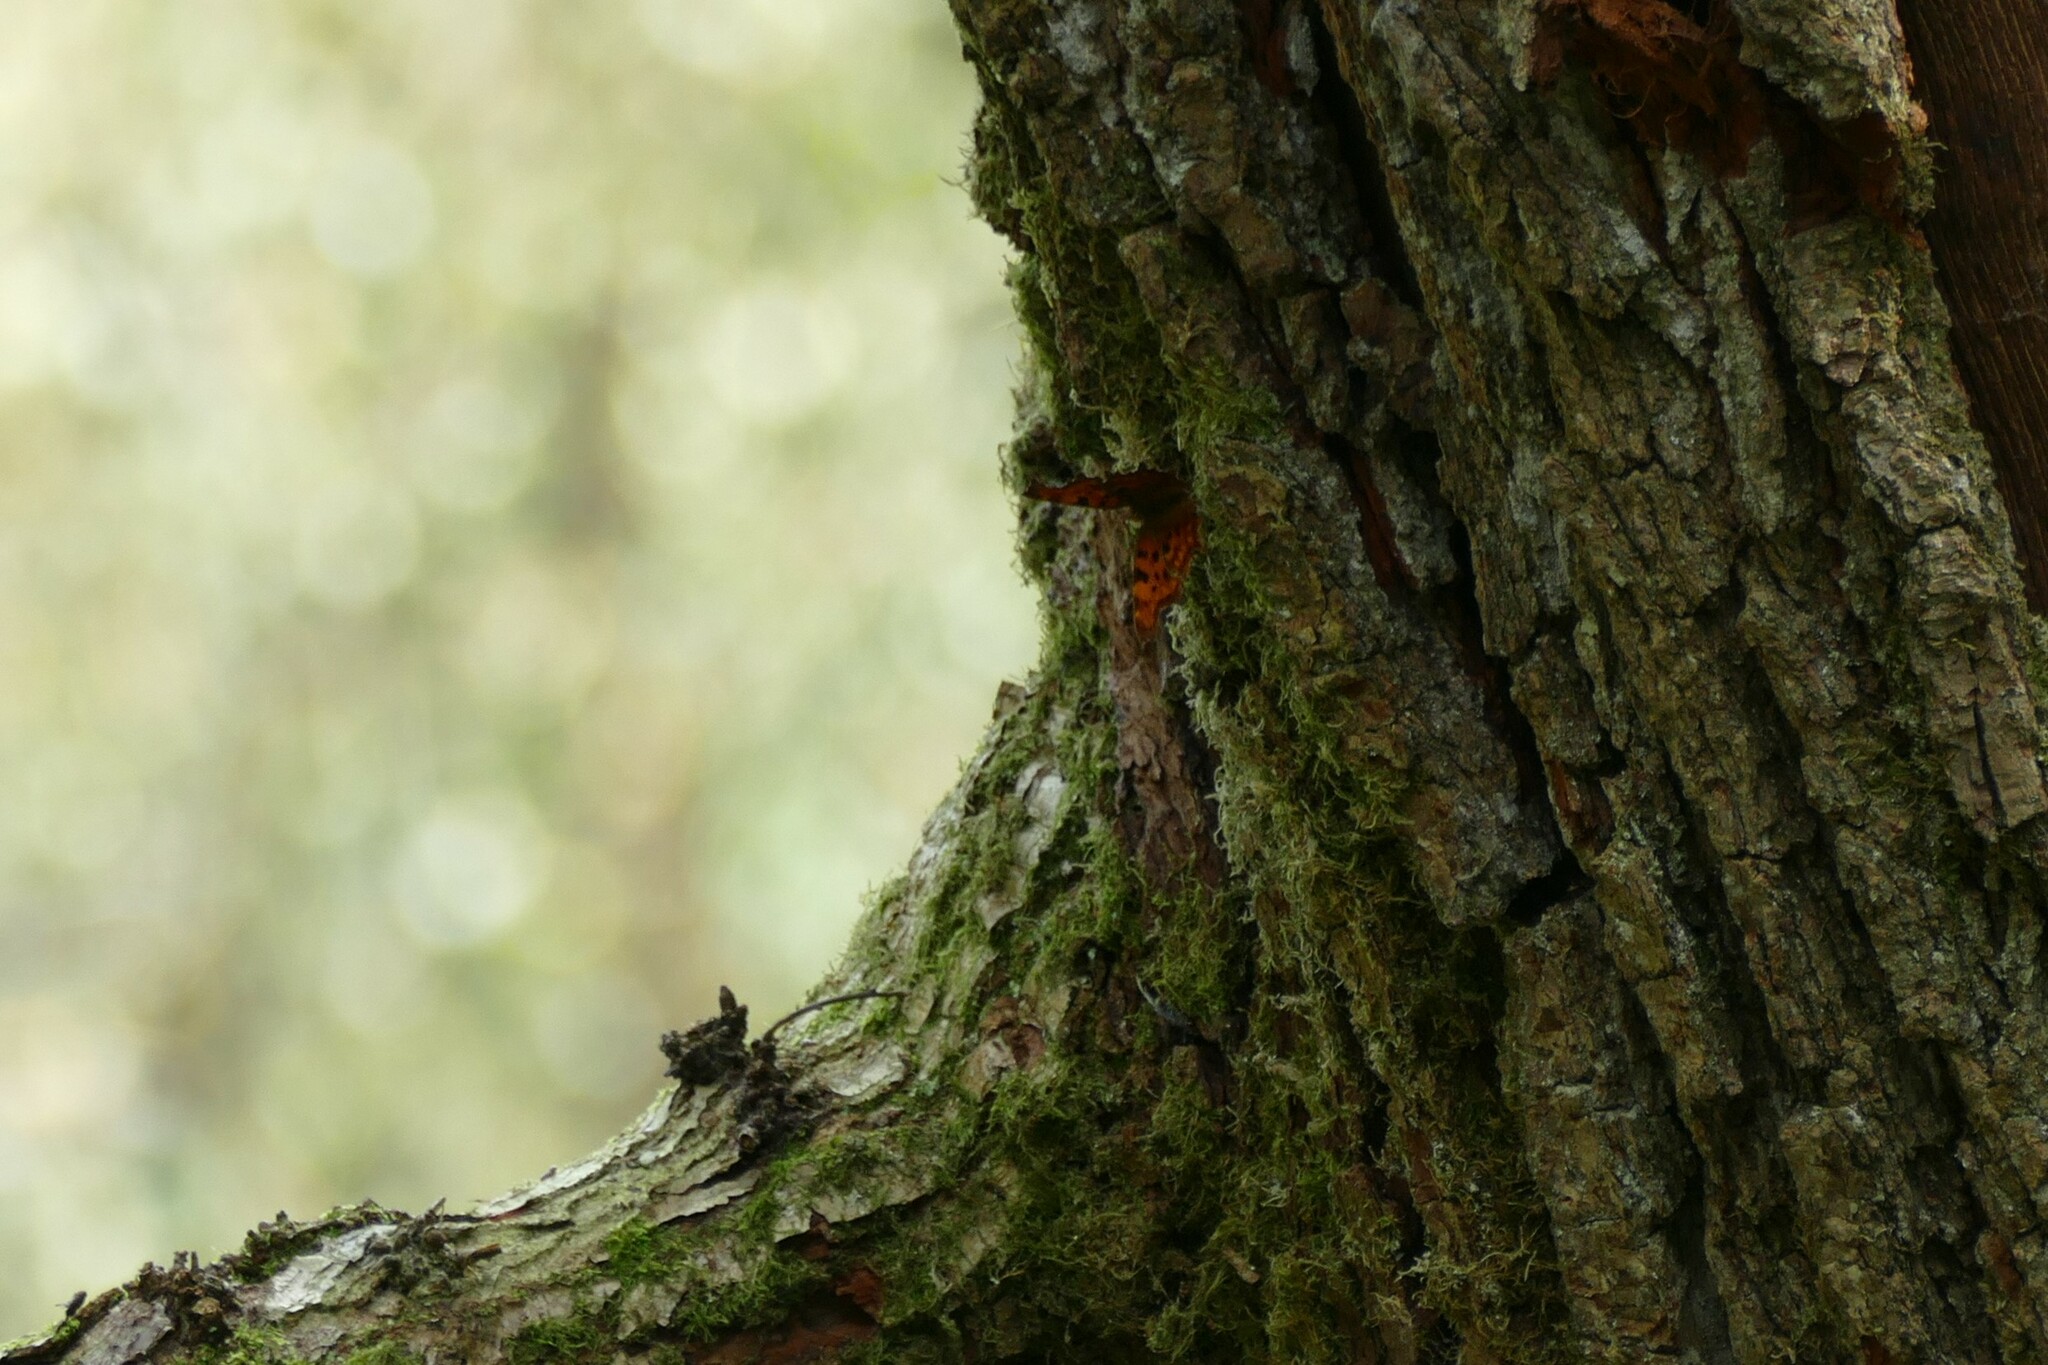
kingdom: Animalia
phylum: Arthropoda
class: Insecta
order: Lepidoptera
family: Nymphalidae
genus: Polygonia
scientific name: Polygonia c-album
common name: Comma
